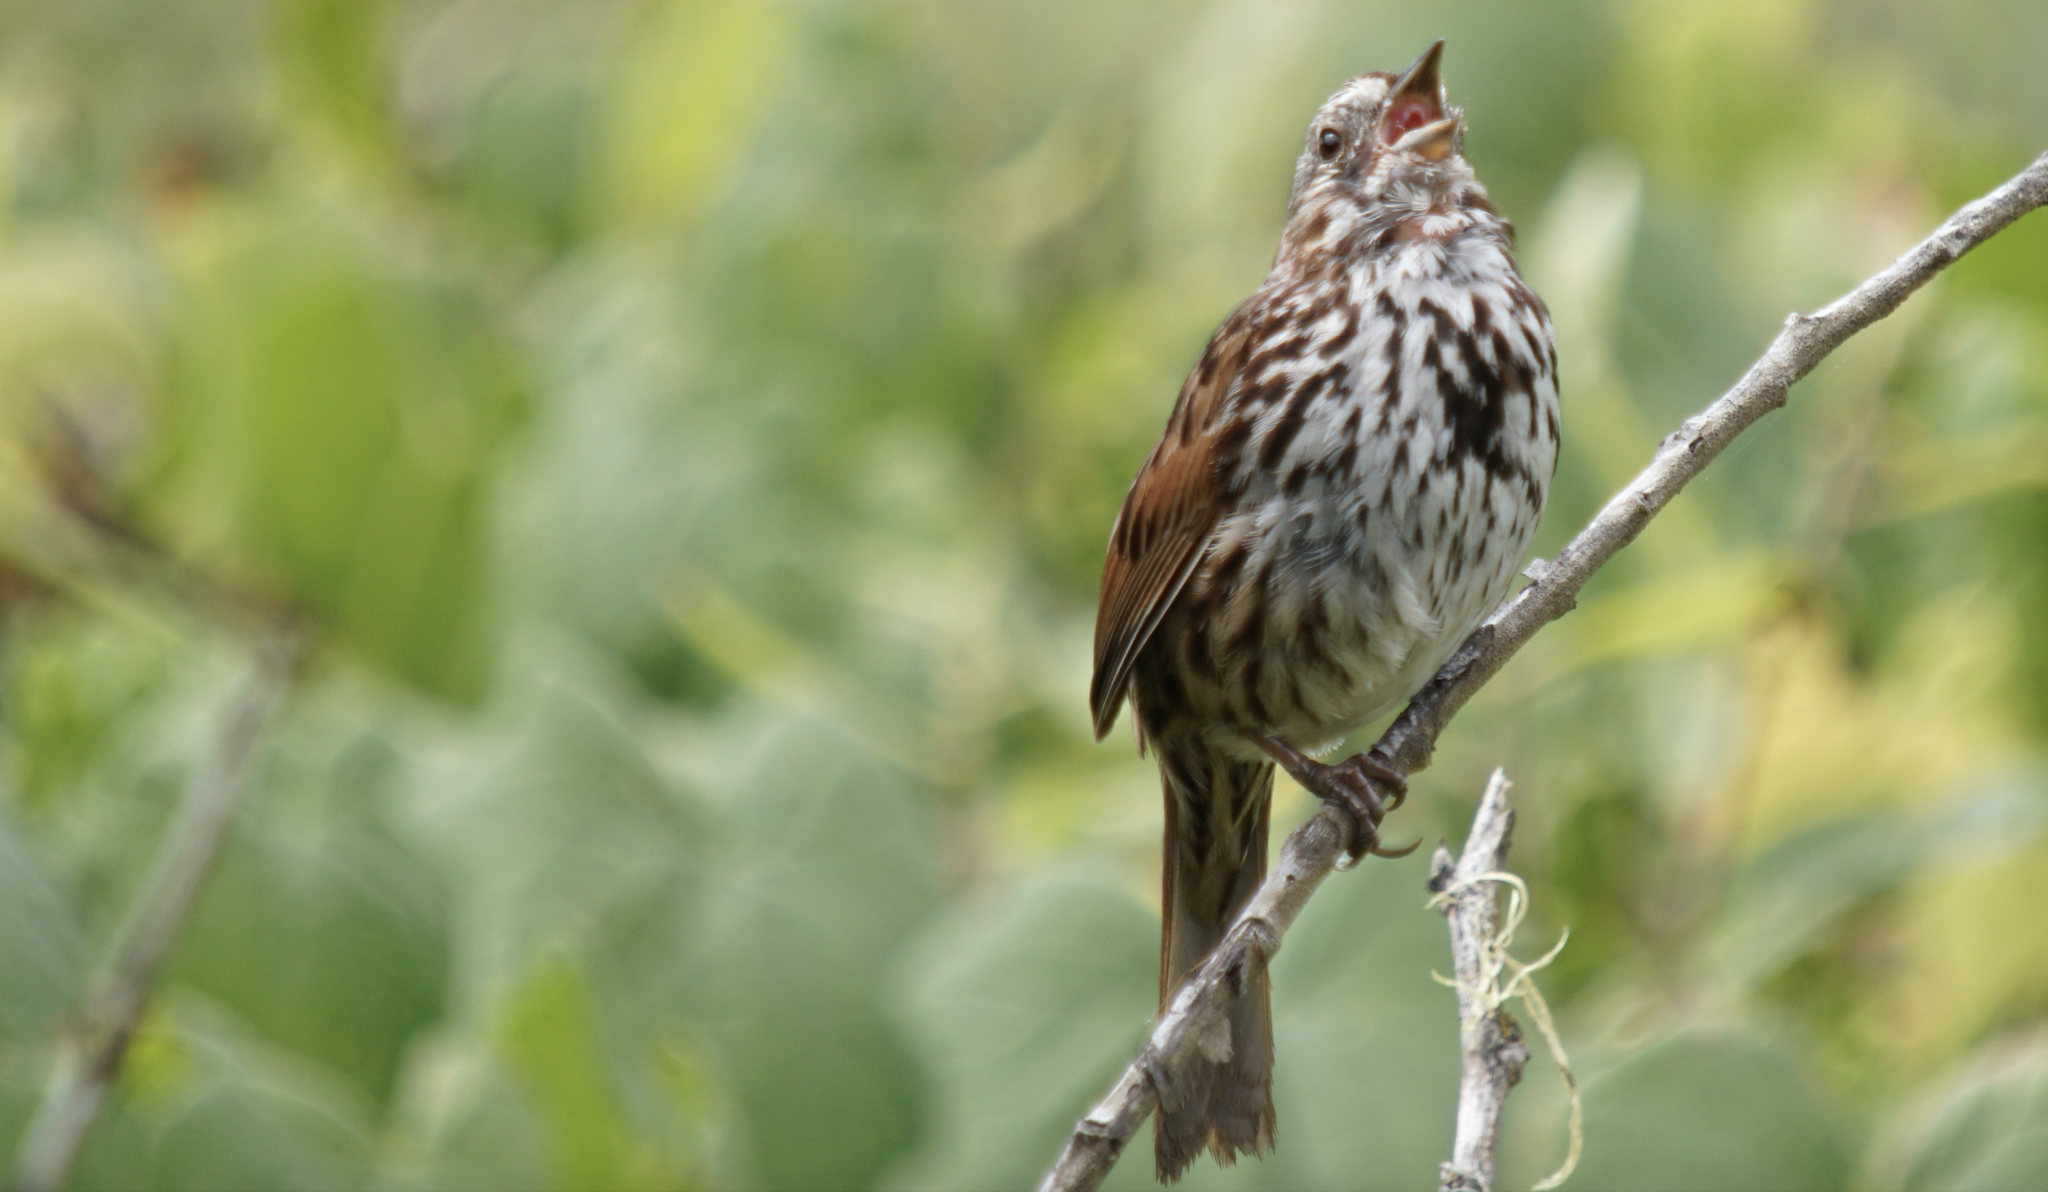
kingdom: Animalia
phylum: Chordata
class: Aves
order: Passeriformes
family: Passerellidae
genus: Melospiza
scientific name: Melospiza melodia
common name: Song sparrow
